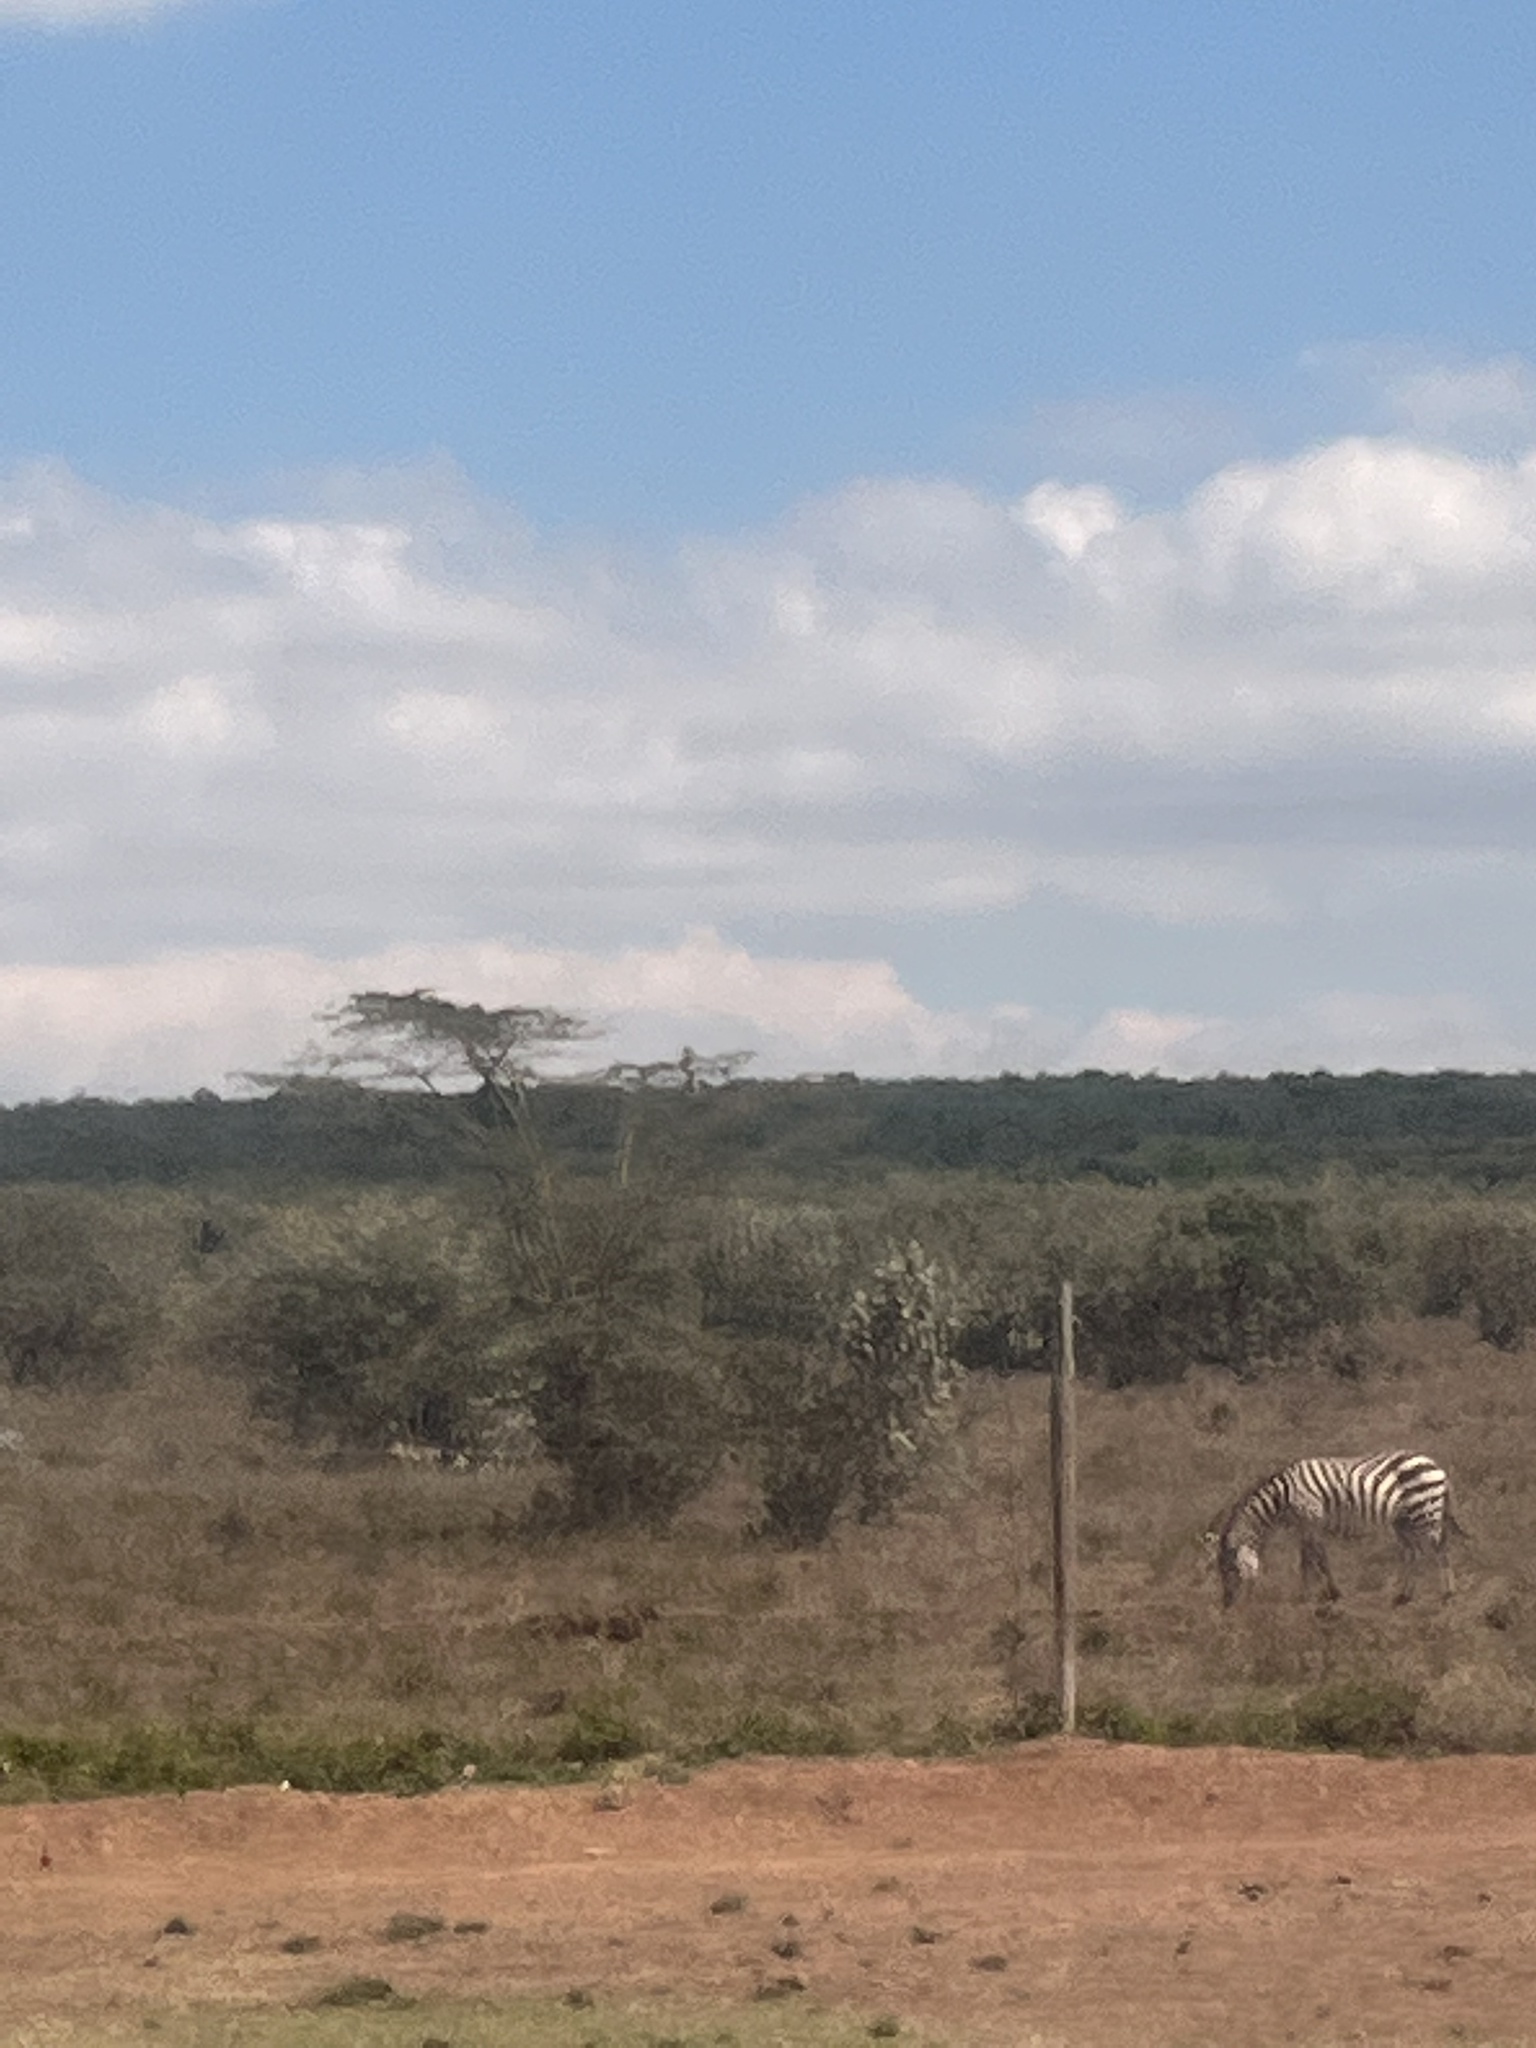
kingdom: Animalia
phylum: Chordata
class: Mammalia
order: Perissodactyla
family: Equidae
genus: Equus
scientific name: Equus quagga
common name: Plains zebra
